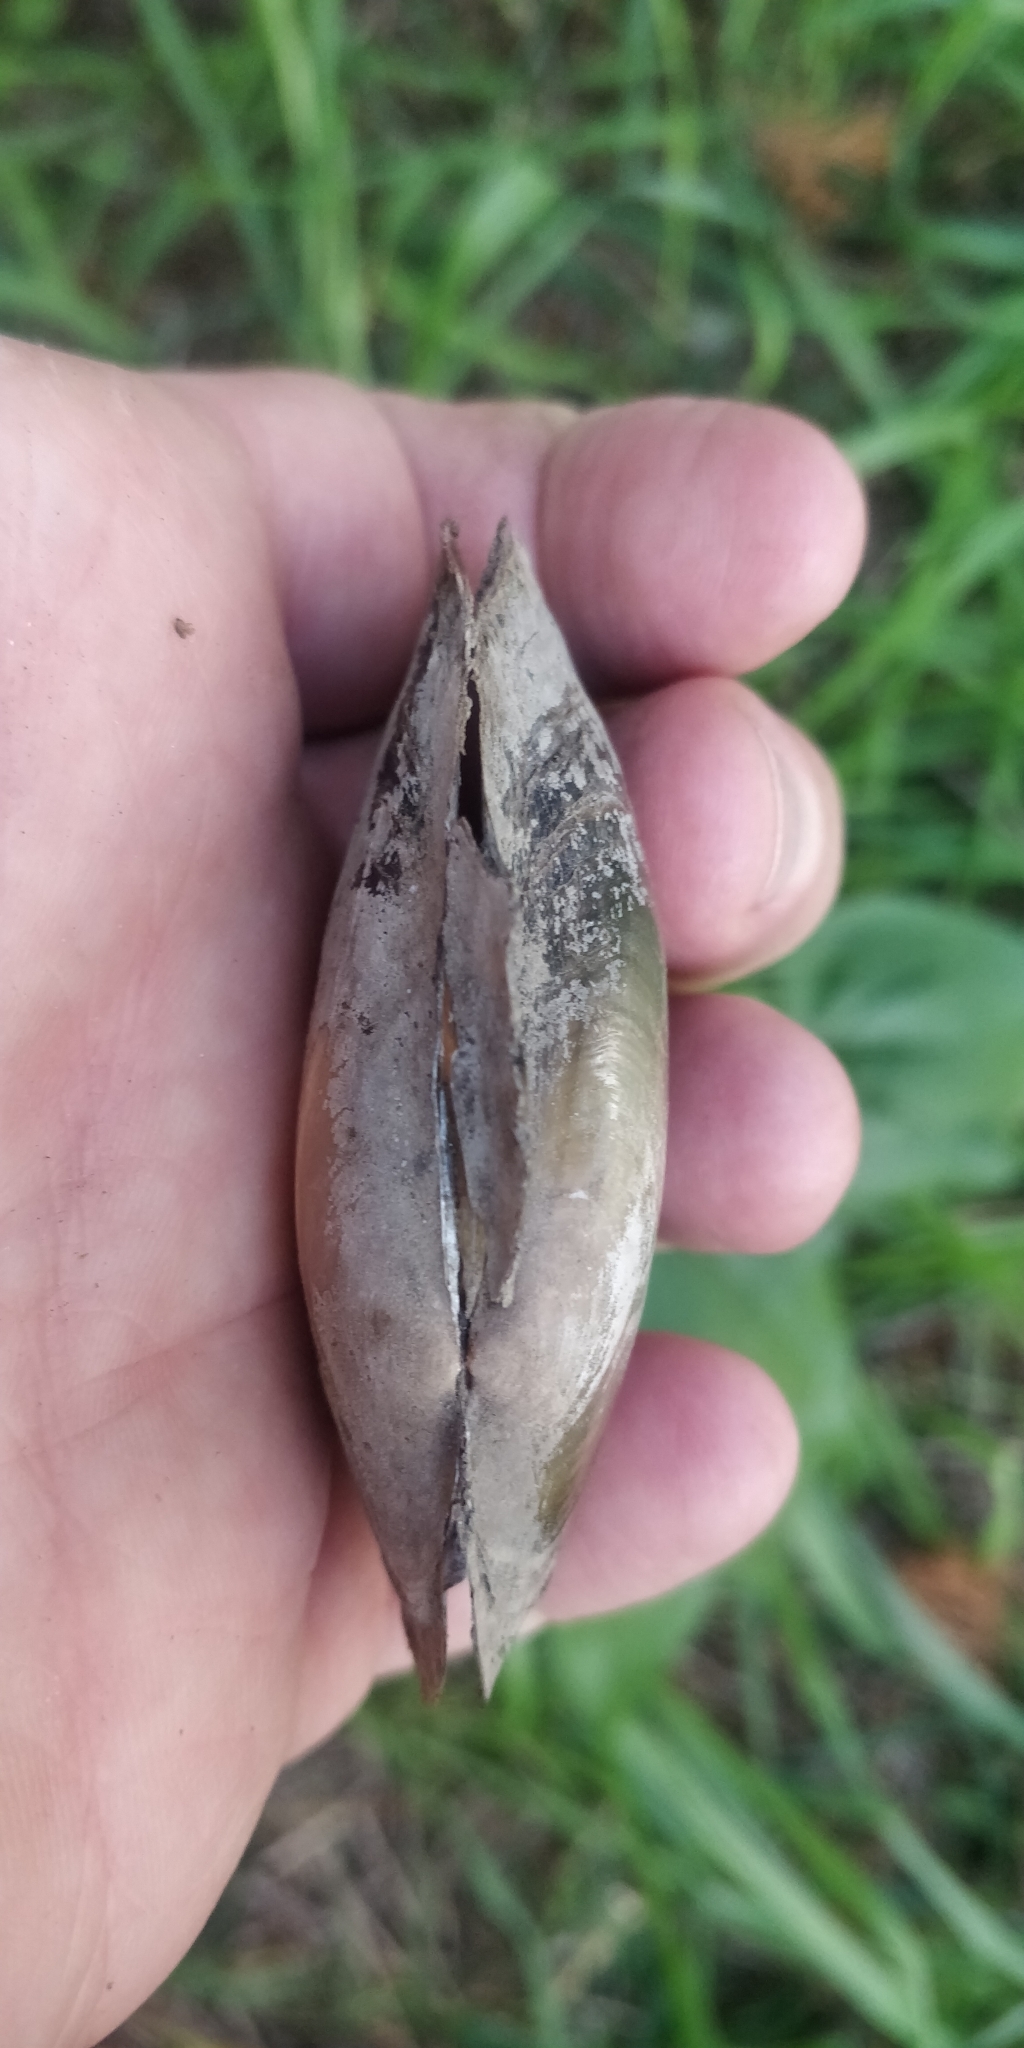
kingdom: Animalia
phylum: Mollusca
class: Bivalvia
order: Unionida
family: Unionidae
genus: Potamilus
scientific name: Potamilus ohiensis
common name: Pink papershell
